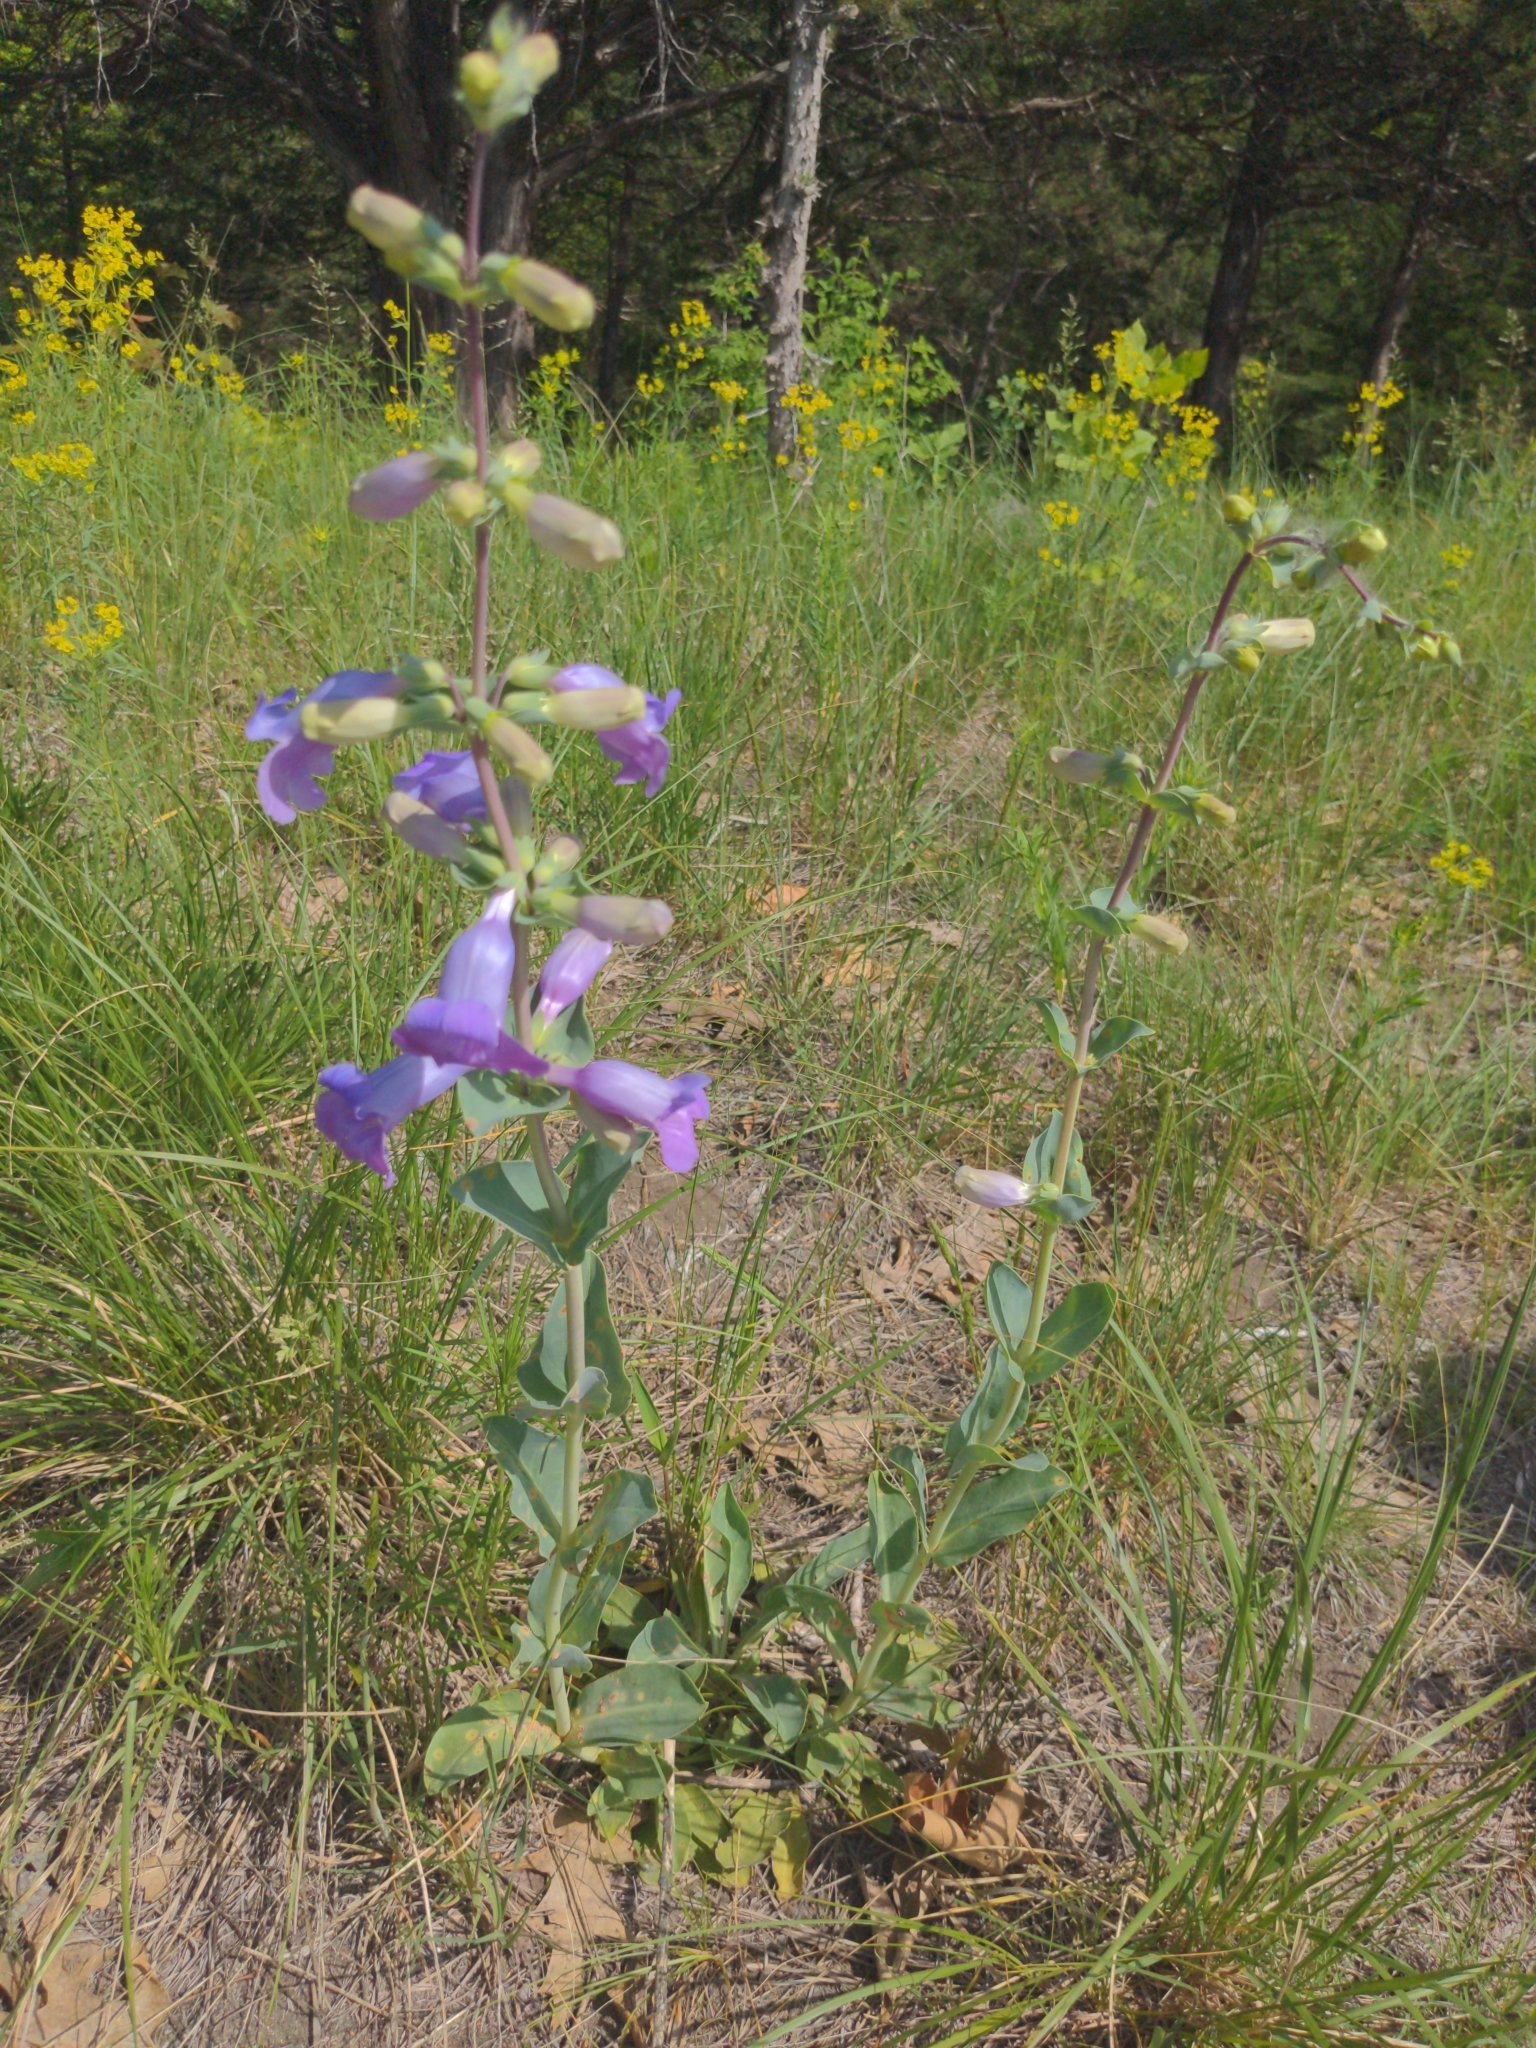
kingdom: Plantae
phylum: Tracheophyta
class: Magnoliopsida
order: Lamiales
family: Plantaginaceae
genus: Penstemon
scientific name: Penstemon
